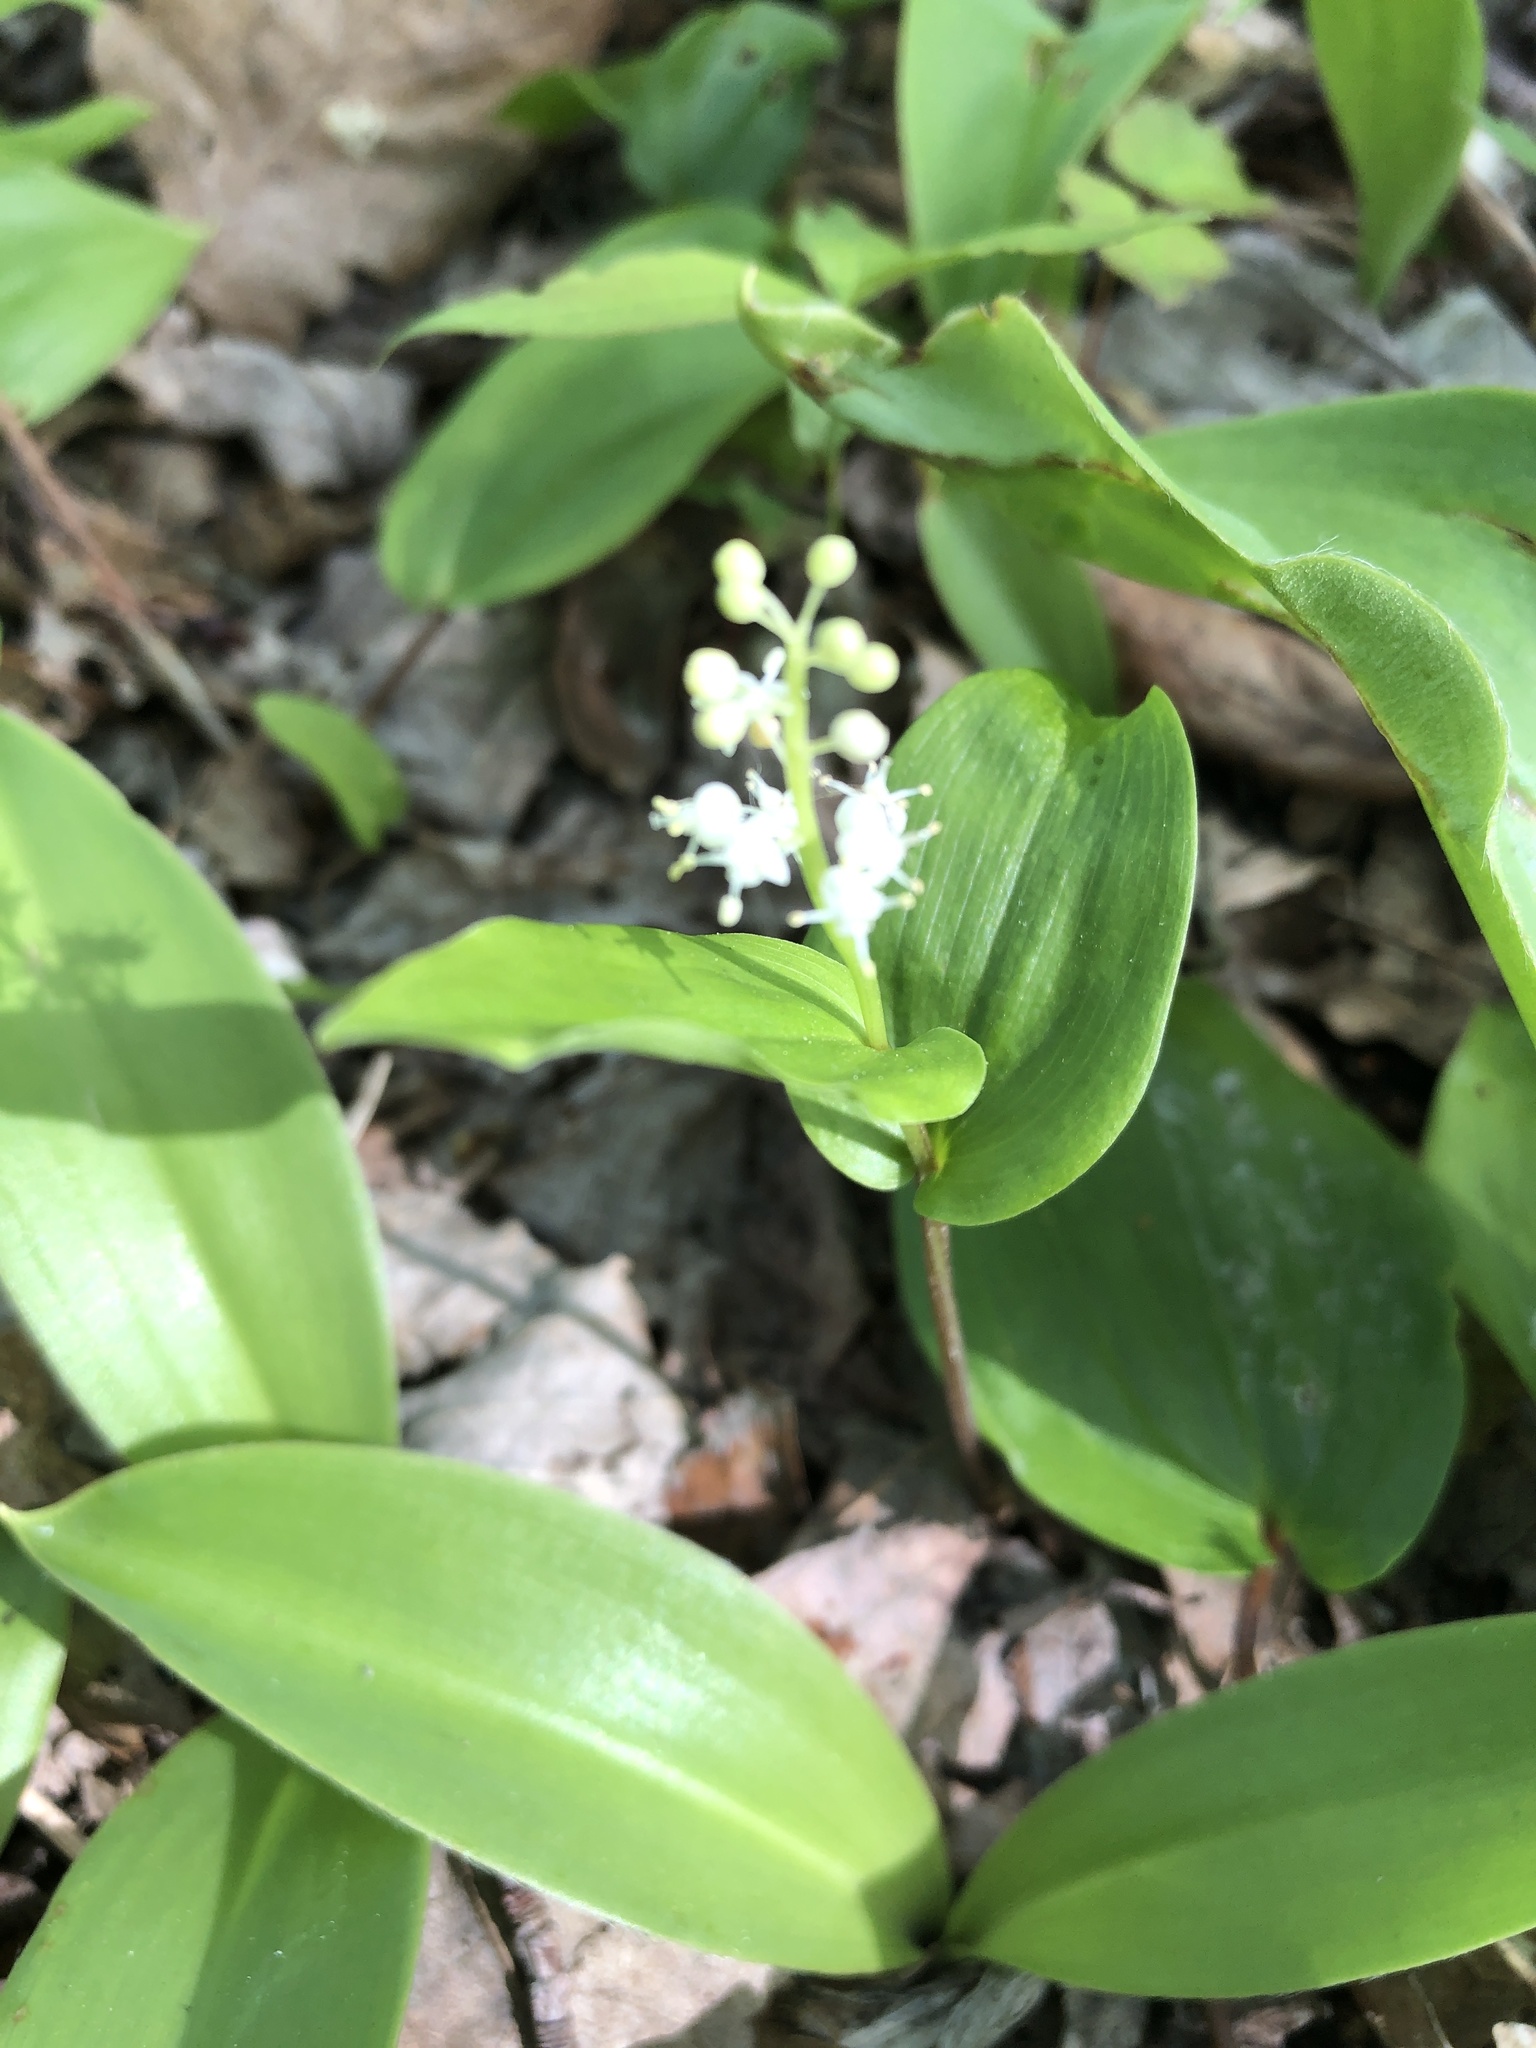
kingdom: Plantae
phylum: Tracheophyta
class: Liliopsida
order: Asparagales
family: Asparagaceae
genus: Maianthemum
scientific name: Maianthemum canadense
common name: False lily-of-the-valley
